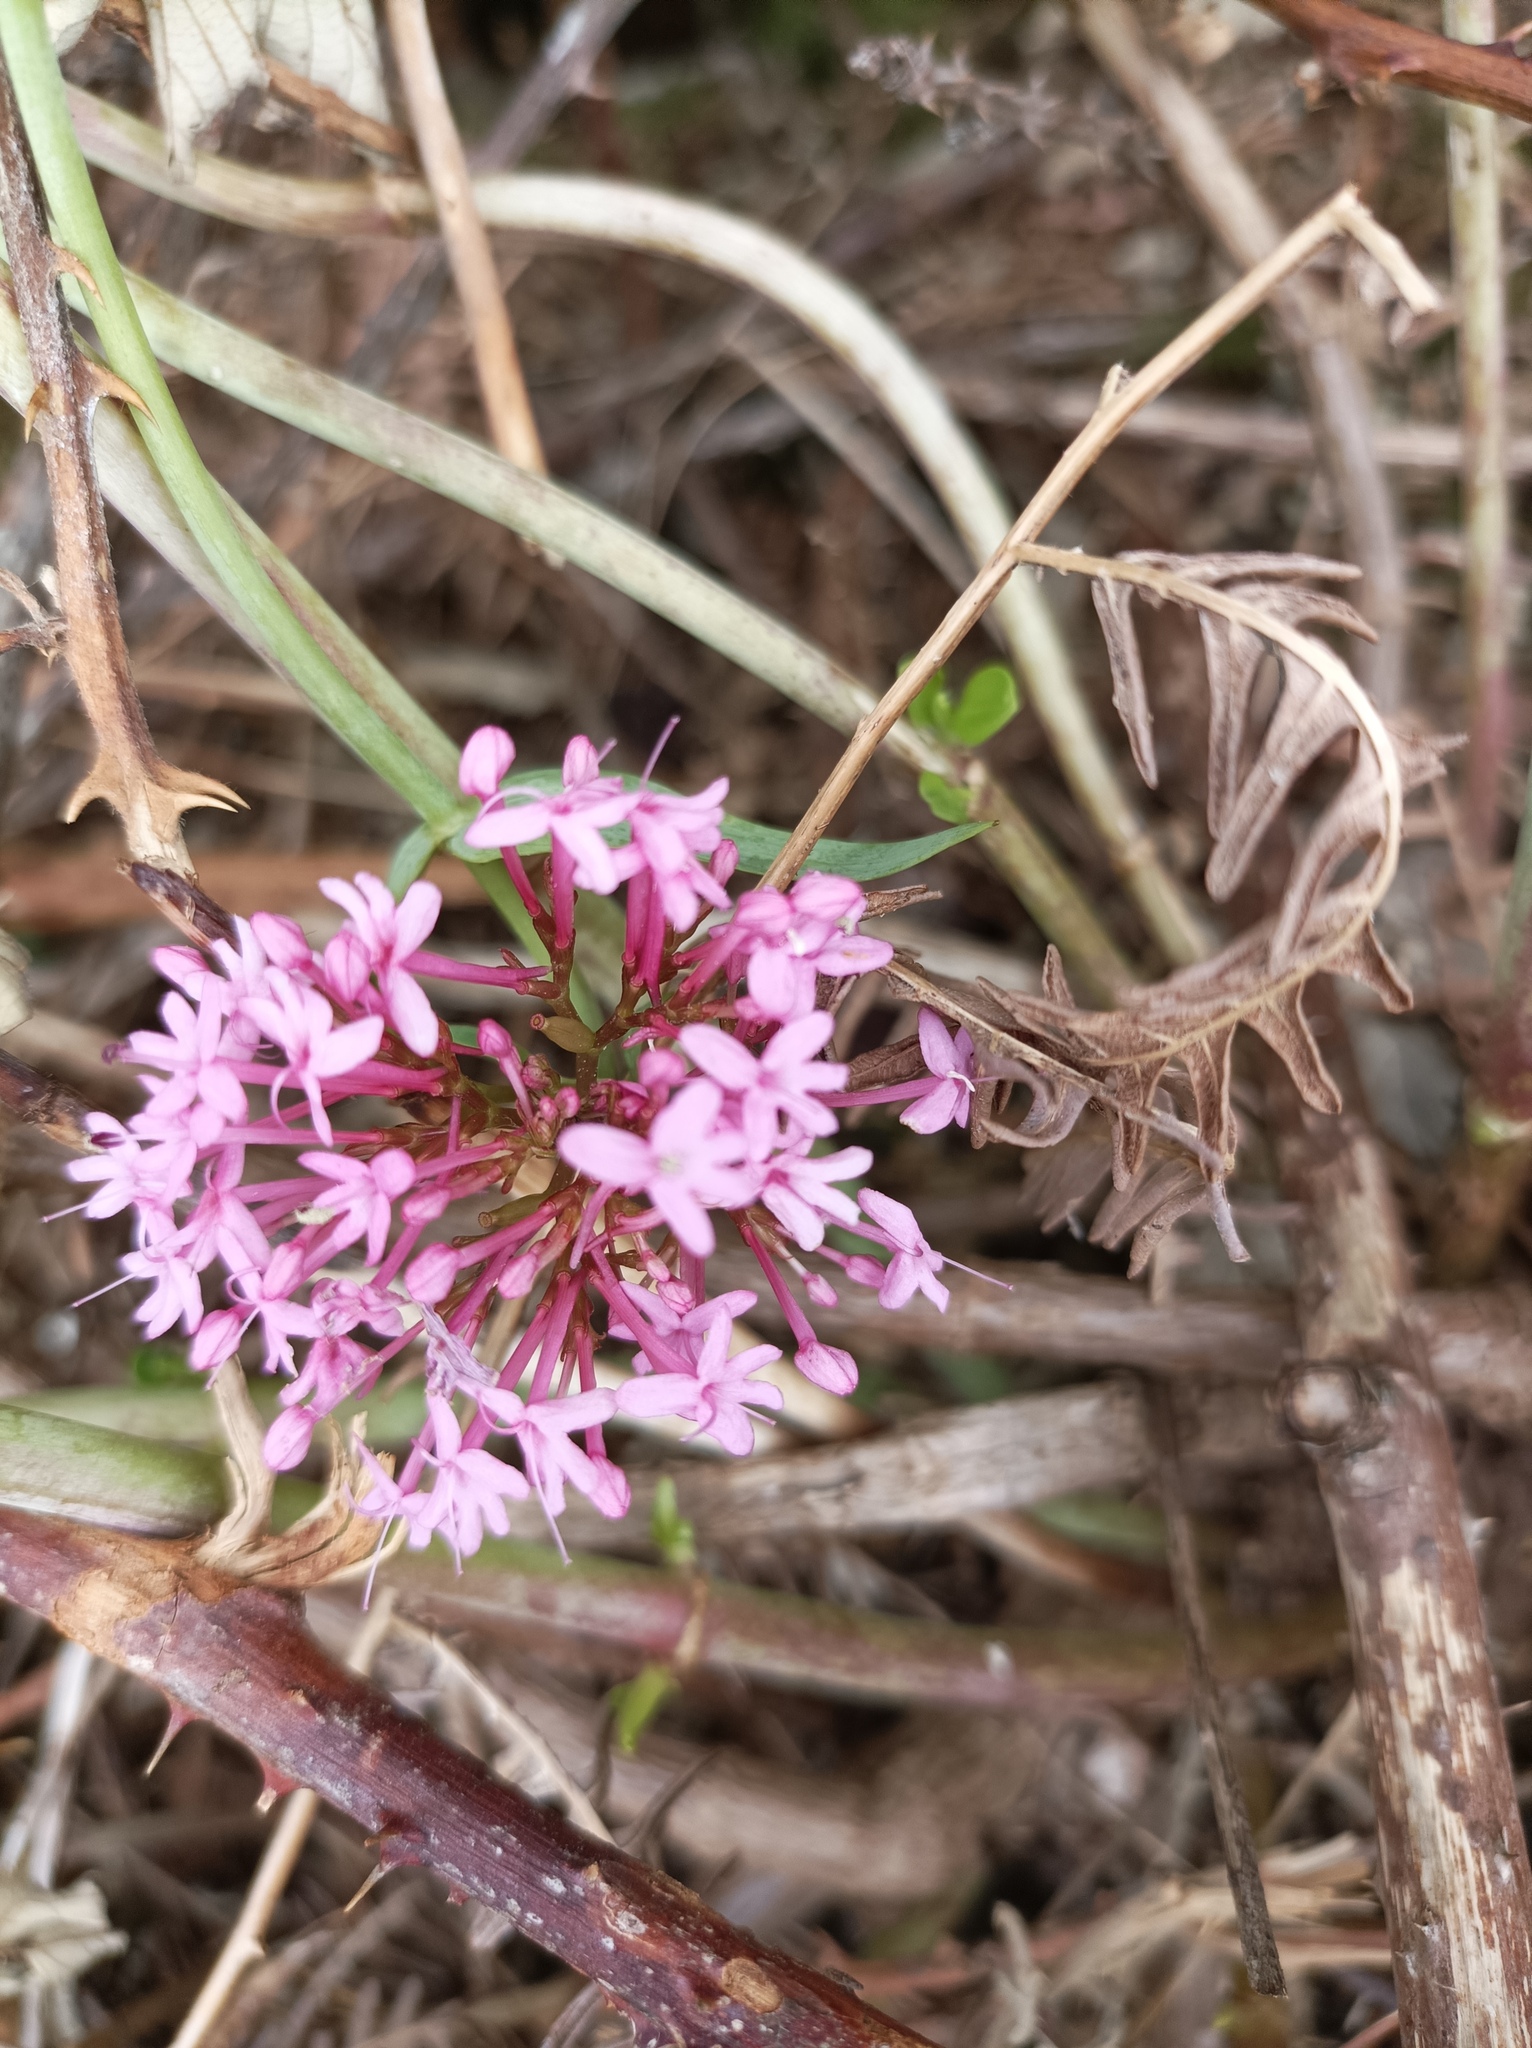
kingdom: Plantae
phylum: Tracheophyta
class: Magnoliopsida
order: Dipsacales
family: Caprifoliaceae
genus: Centranthus
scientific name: Centranthus ruber
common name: Red valerian
